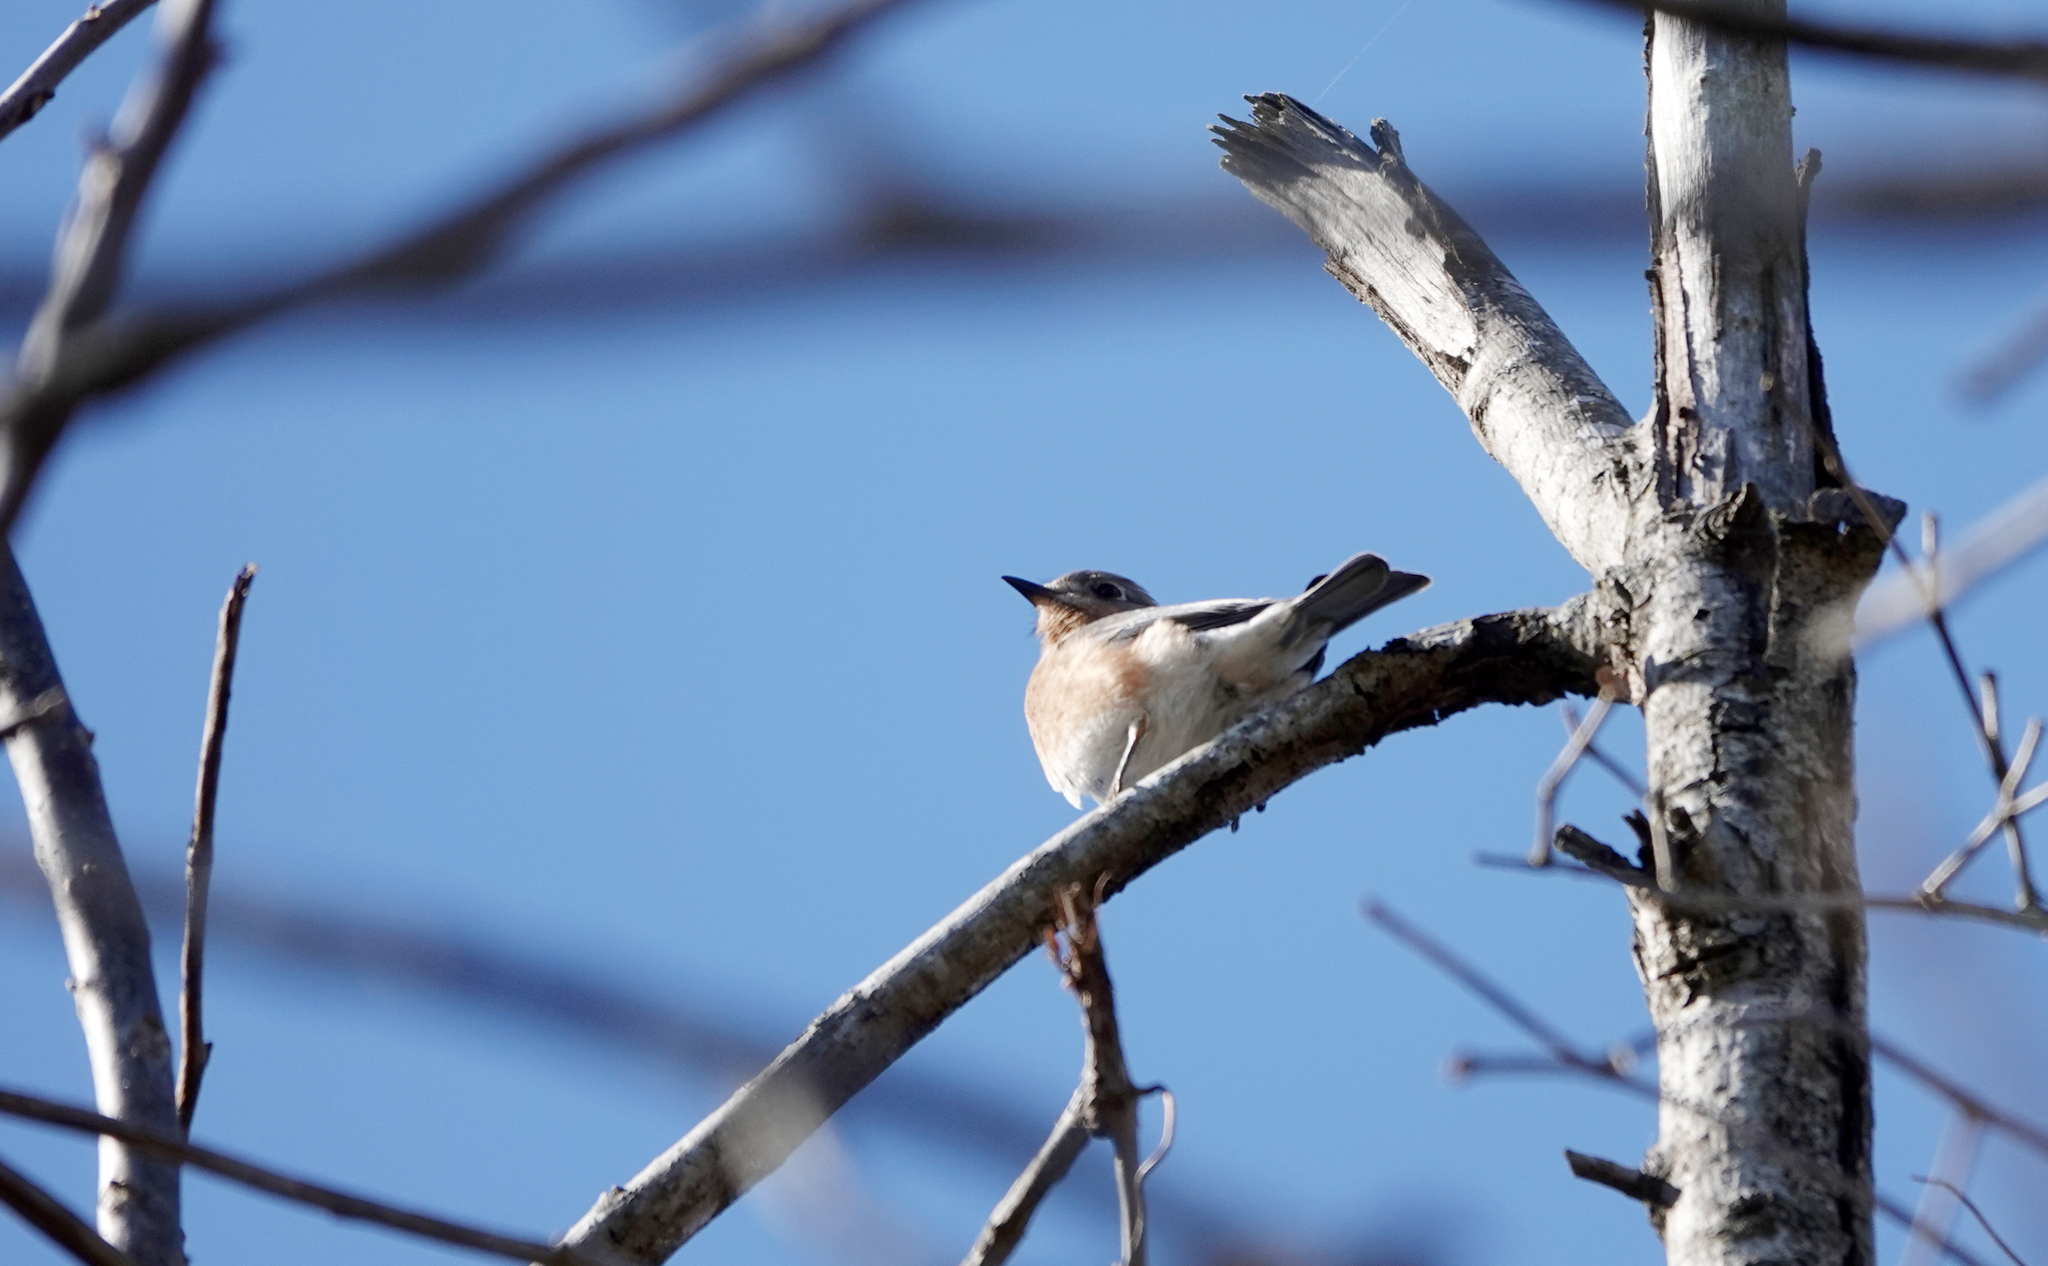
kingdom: Animalia
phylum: Chordata
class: Aves
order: Passeriformes
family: Turdidae
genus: Sialia
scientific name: Sialia sialis
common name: Eastern bluebird
